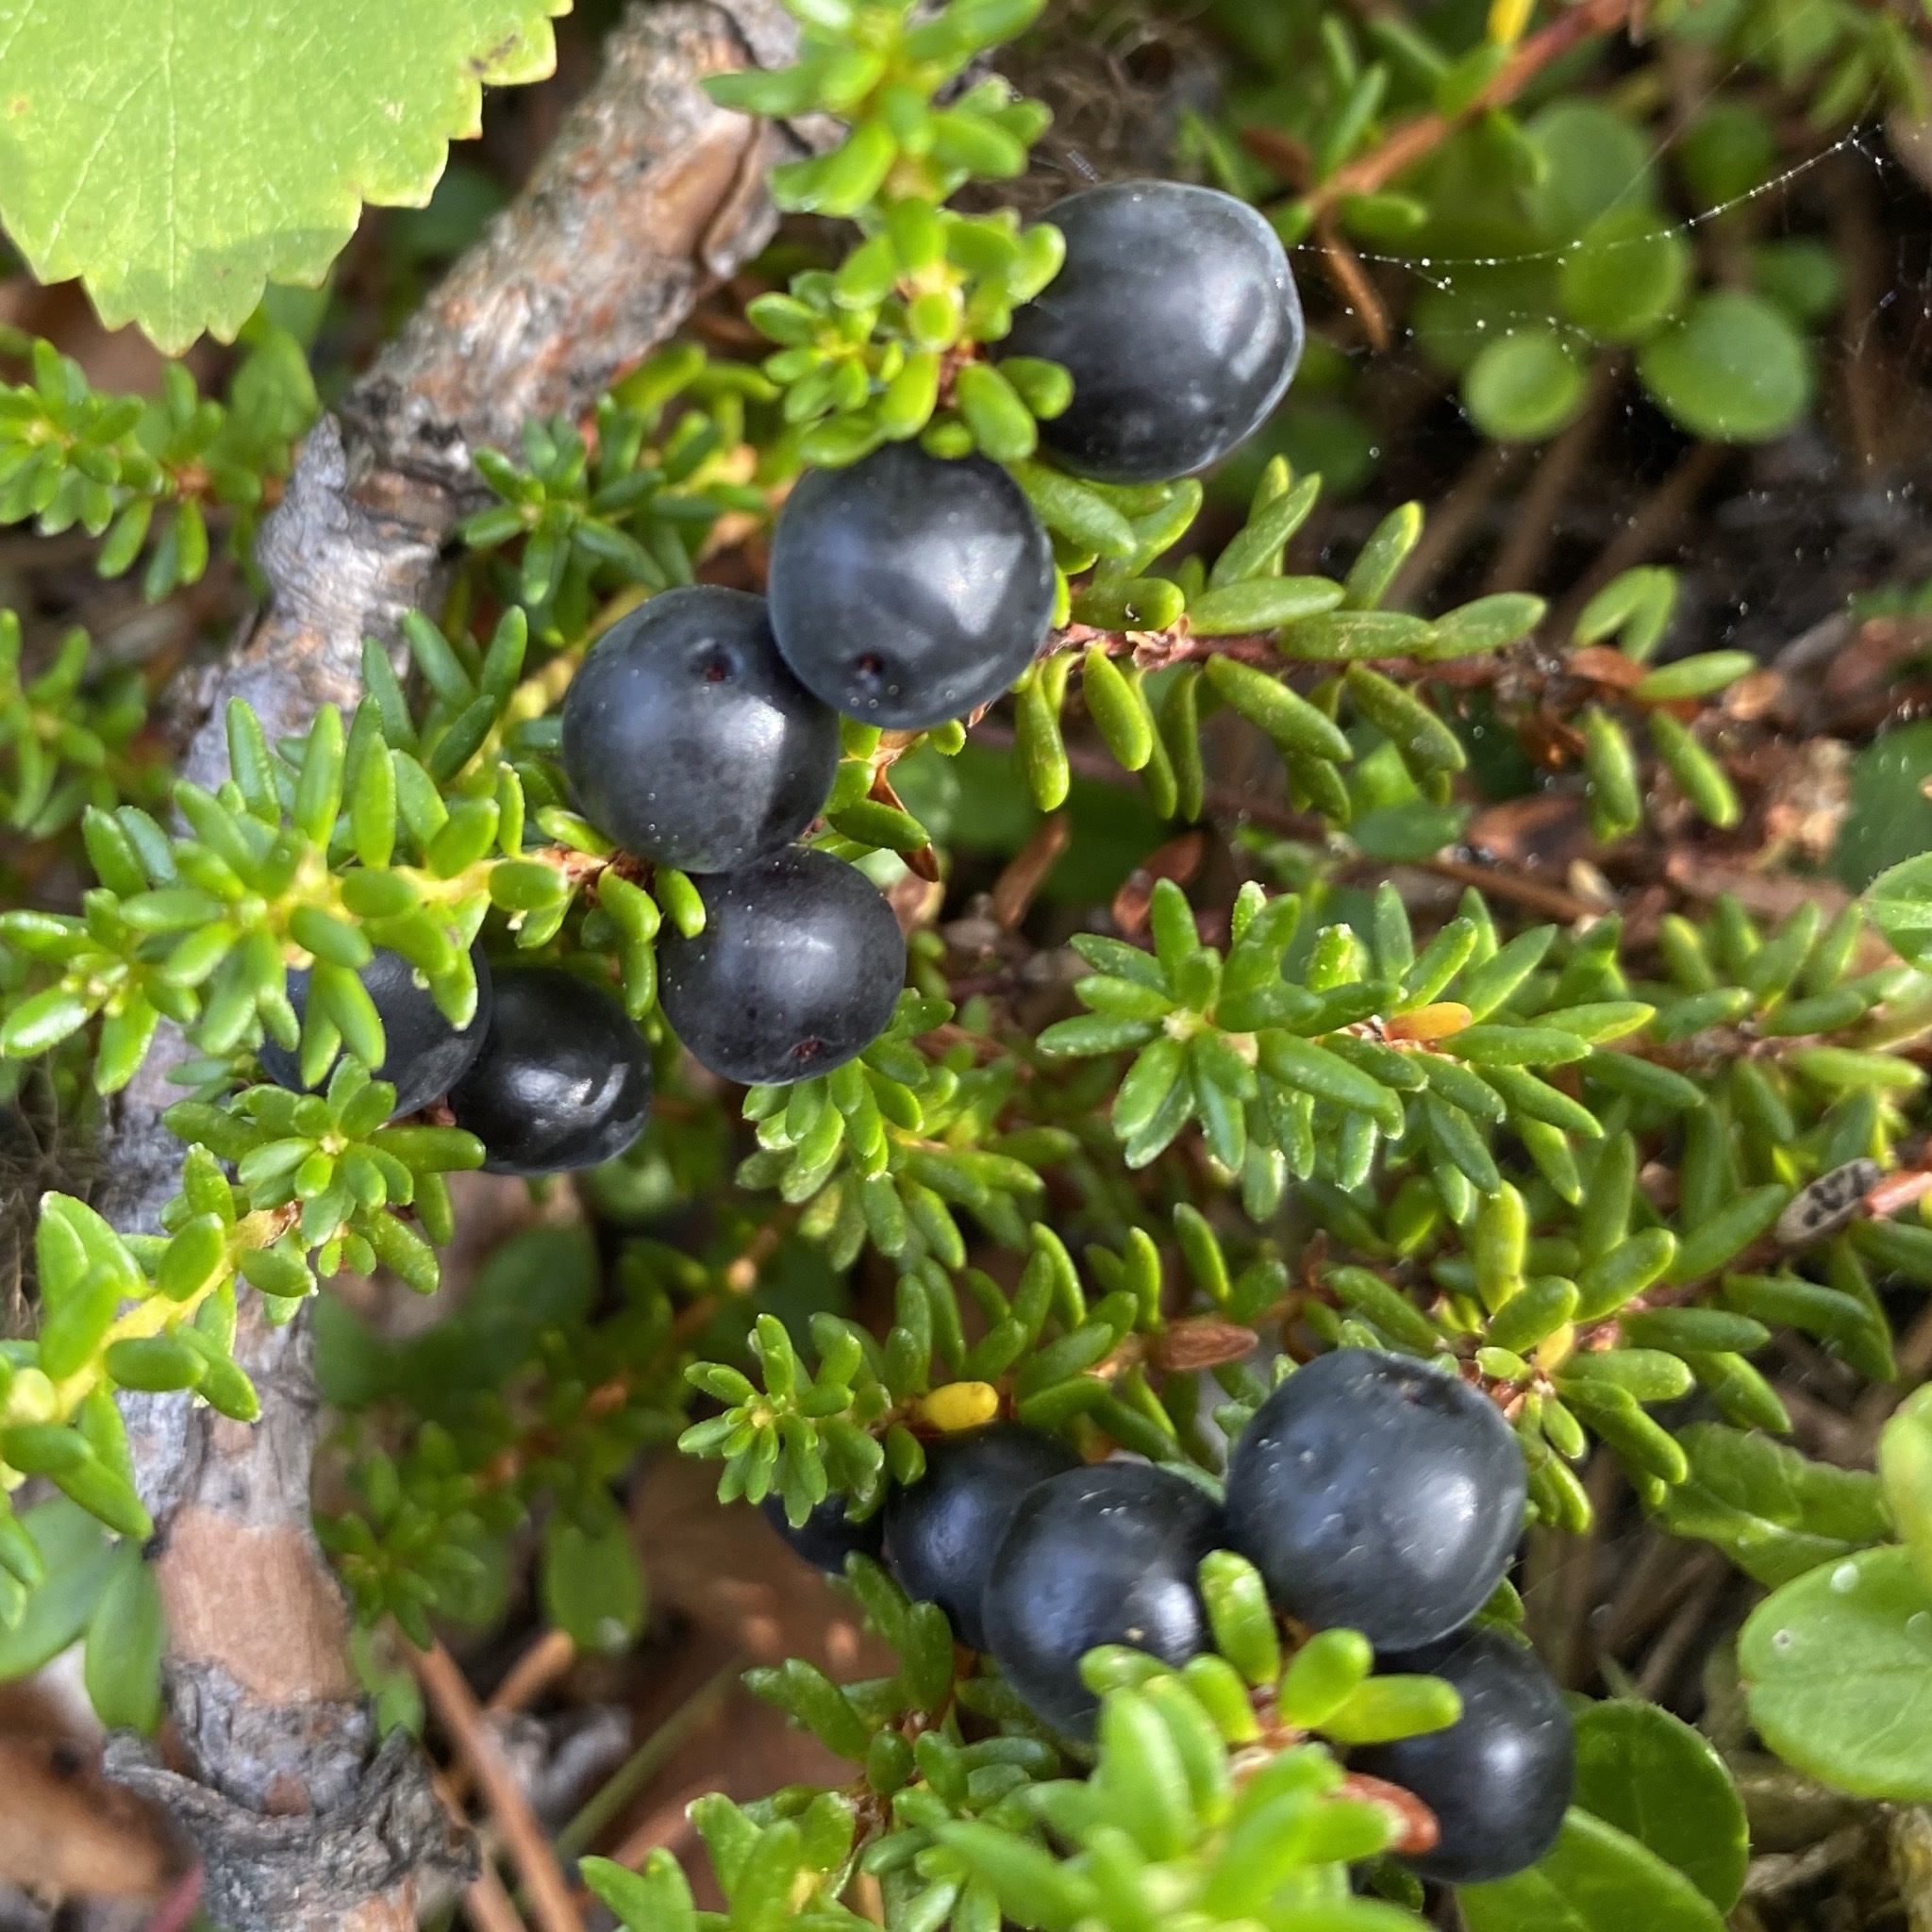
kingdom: Plantae
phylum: Tracheophyta
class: Magnoliopsida
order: Ericales
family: Ericaceae
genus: Empetrum
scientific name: Empetrum nigrum
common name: Black crowberry
